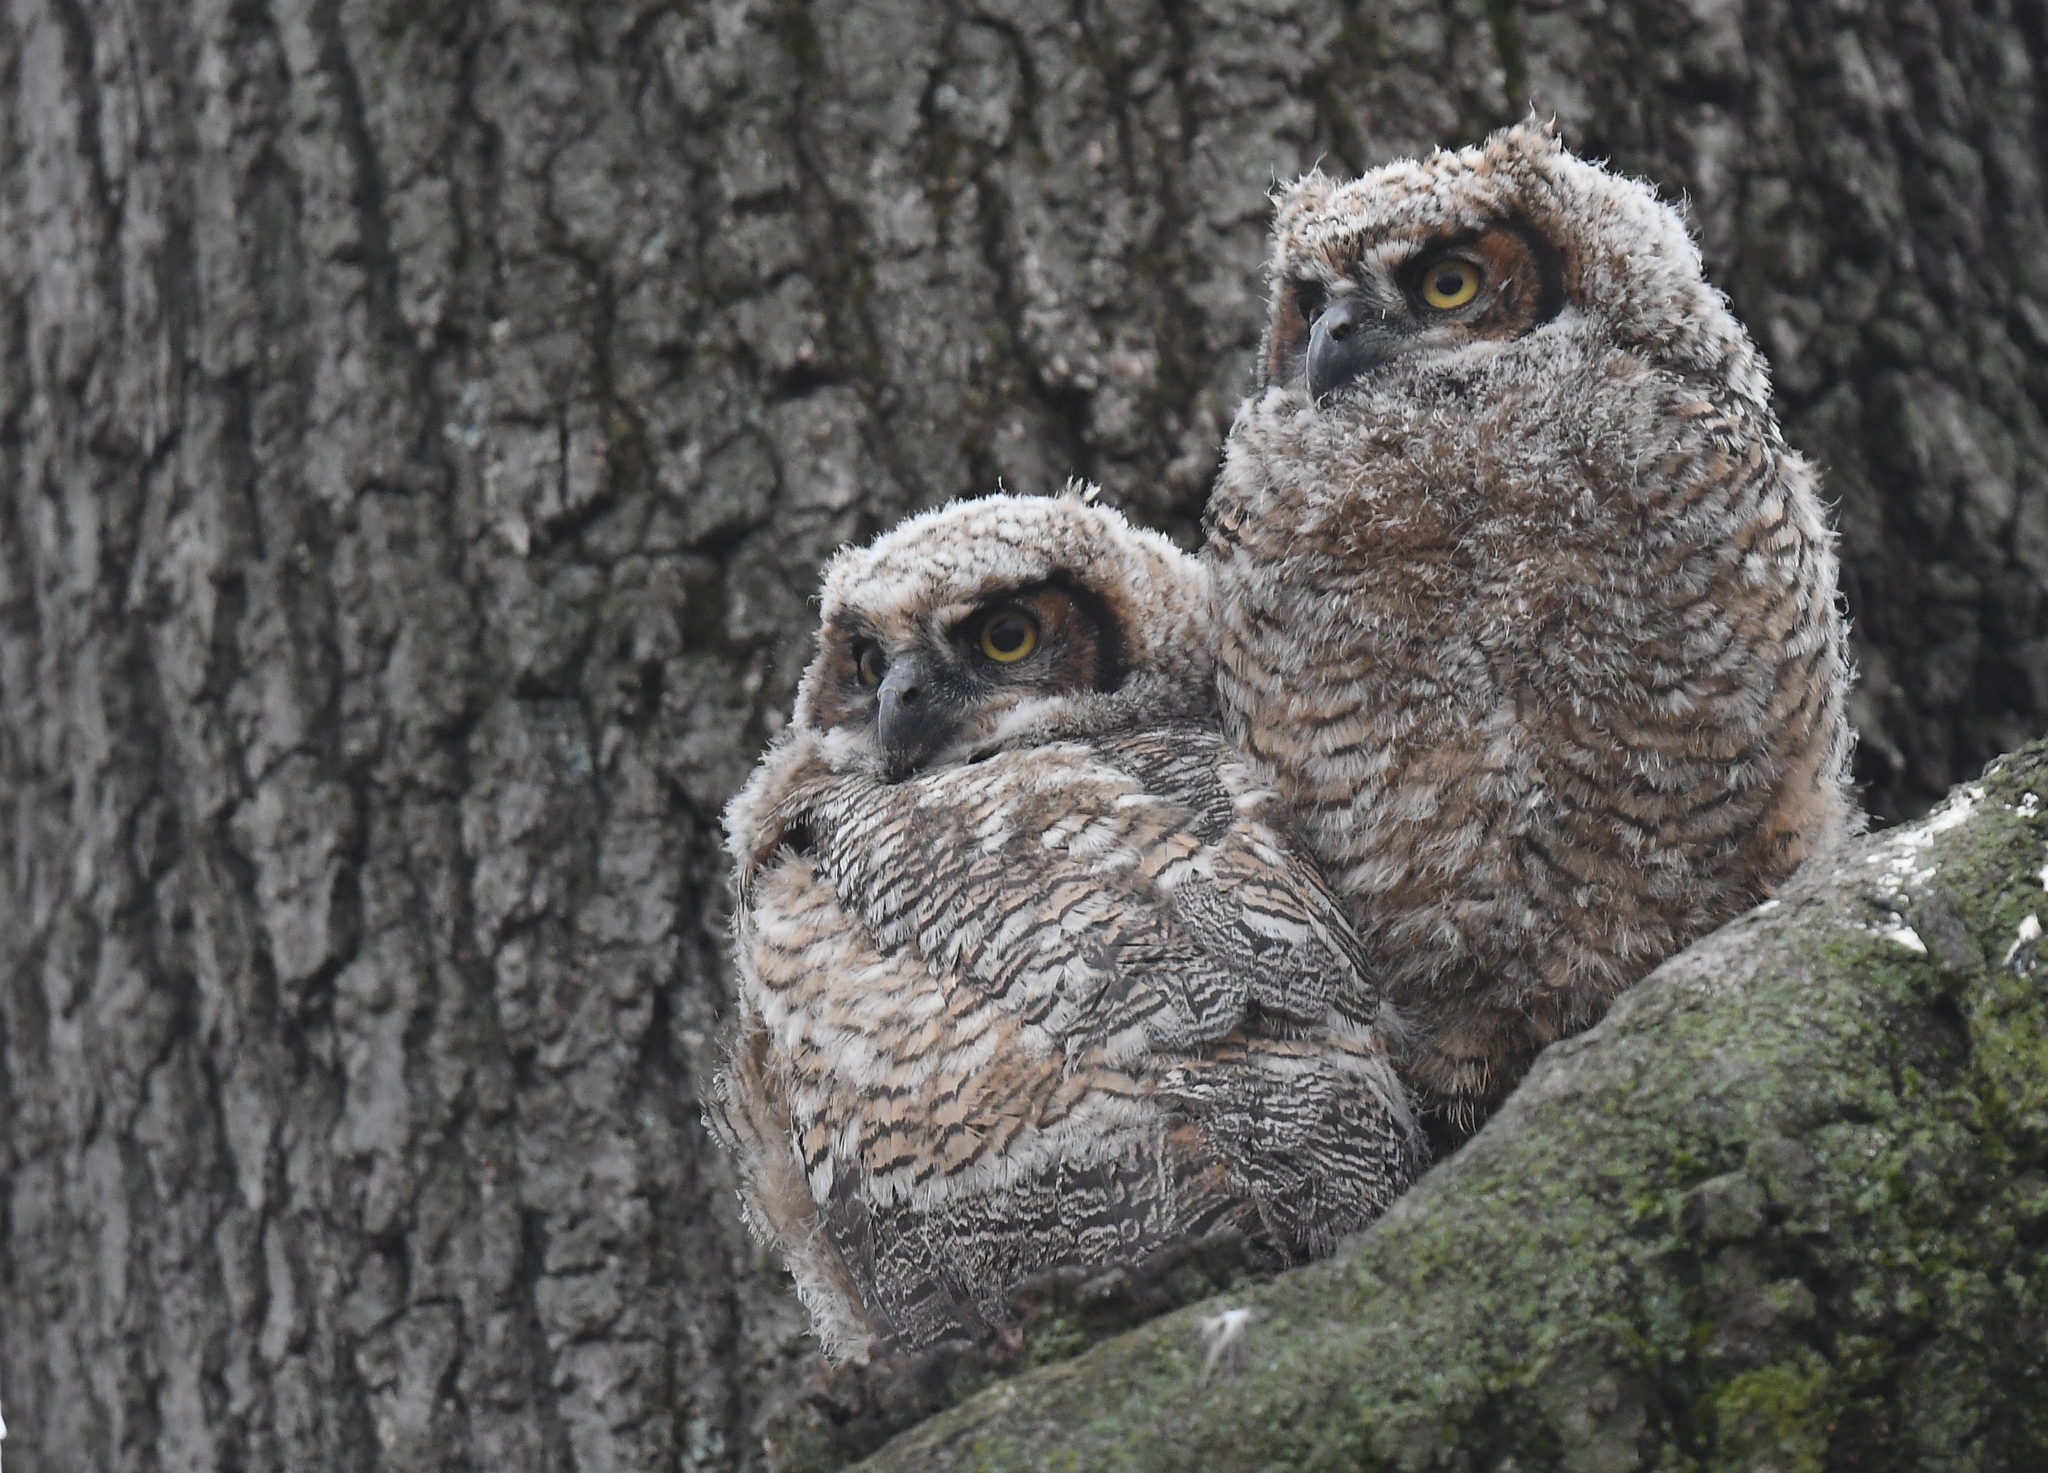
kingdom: Animalia
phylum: Chordata
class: Aves
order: Strigiformes
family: Strigidae
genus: Bubo
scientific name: Bubo virginianus
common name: Great horned owl
